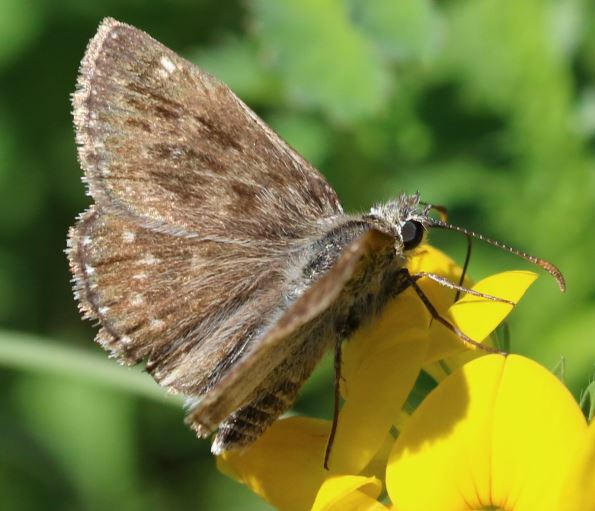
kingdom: Animalia
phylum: Arthropoda
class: Insecta
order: Lepidoptera
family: Hesperiidae
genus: Erynnis
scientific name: Erynnis tages
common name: Dingy skipper
